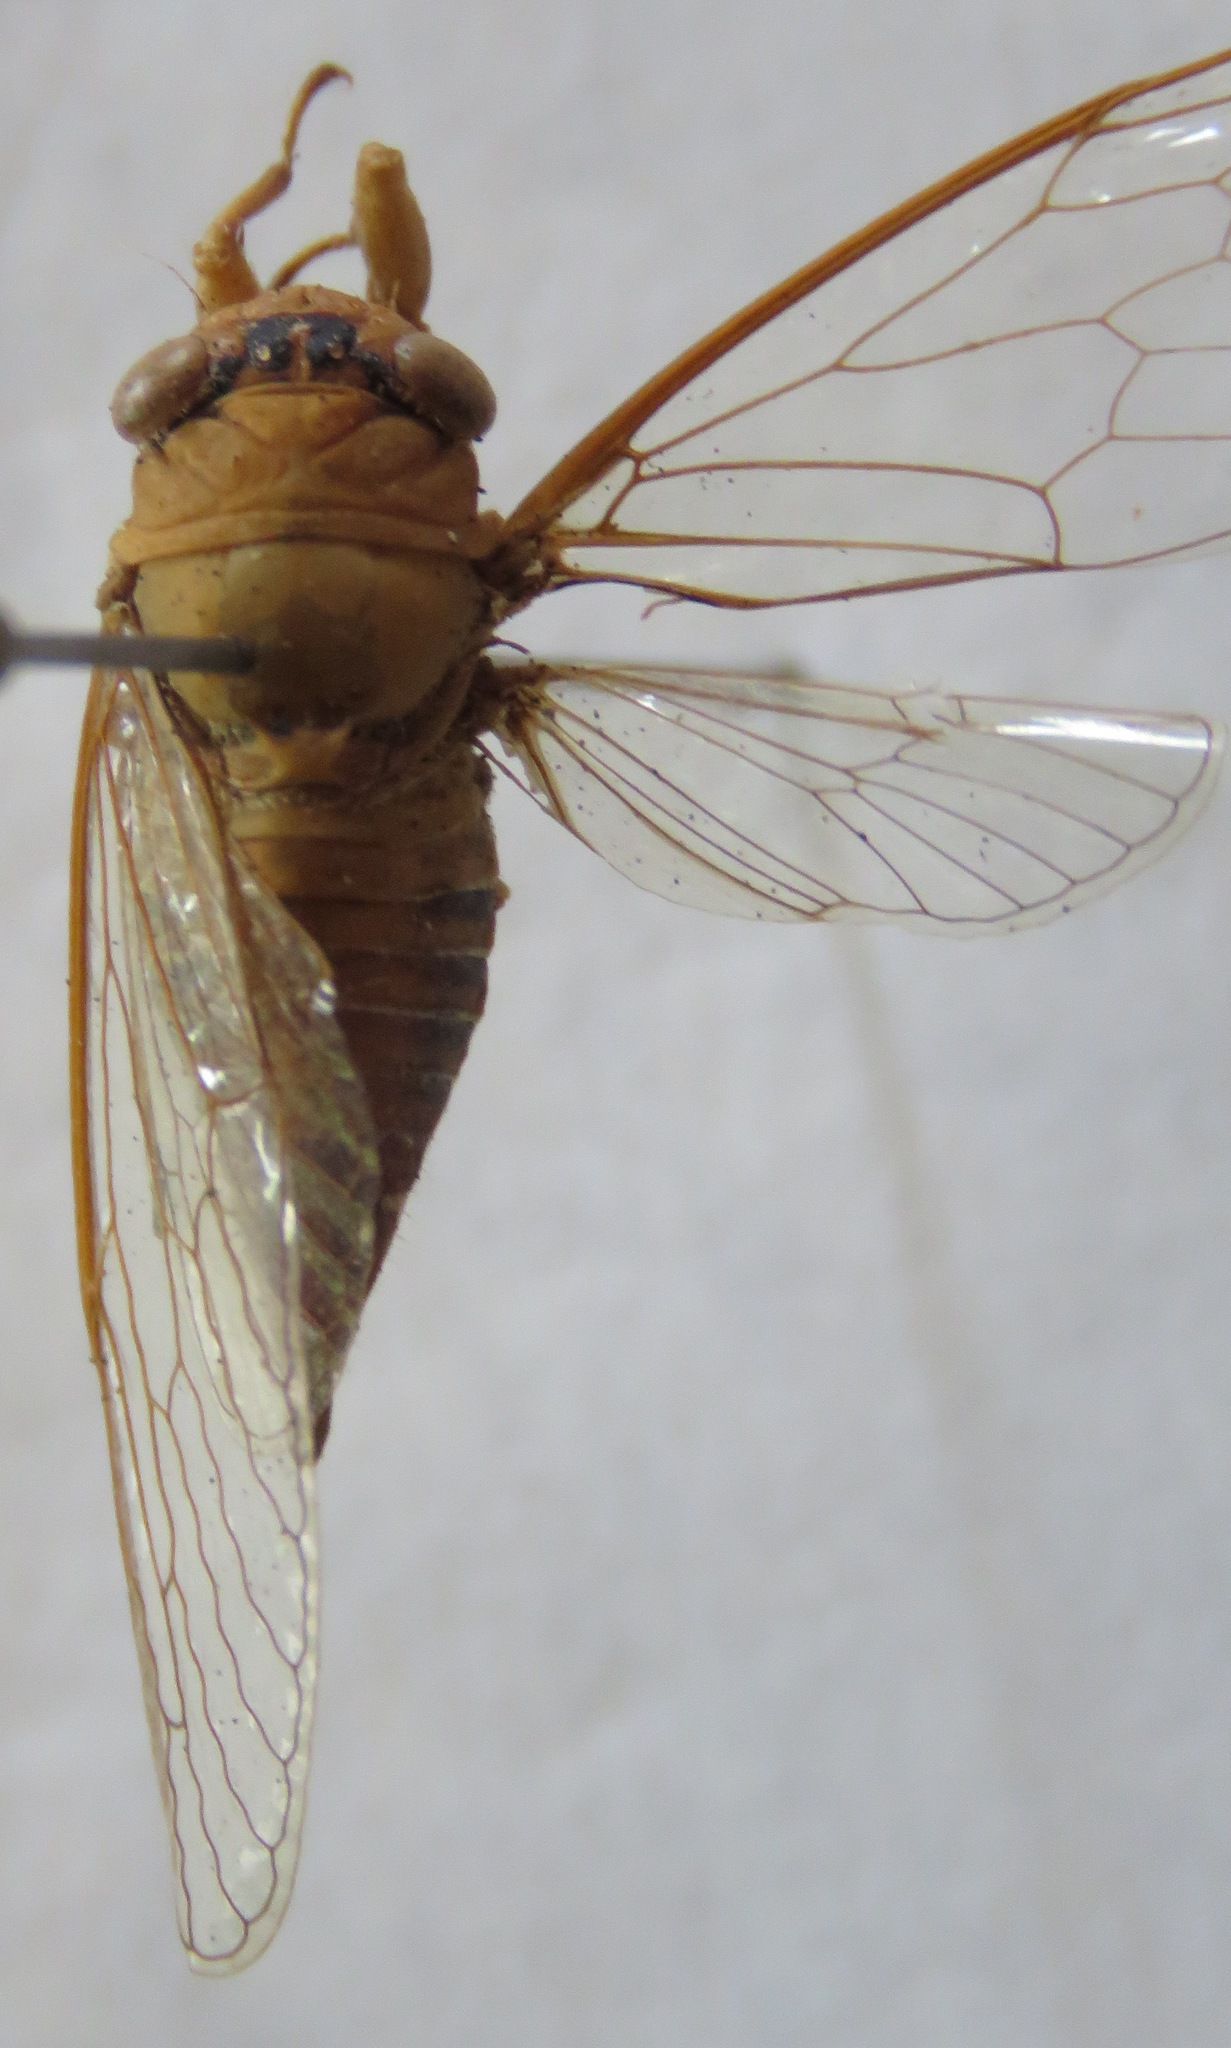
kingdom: Animalia
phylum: Arthropoda
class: Insecta
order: Hemiptera
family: Cicadidae
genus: Herrera
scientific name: Herrera coyamensis
